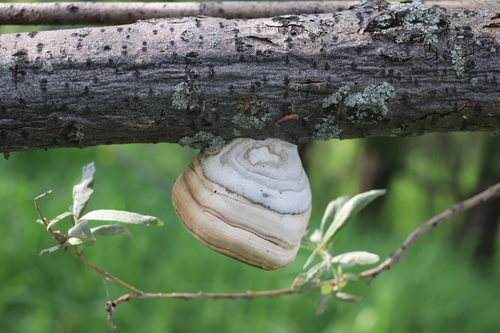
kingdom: Fungi
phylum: Basidiomycota
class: Agaricomycetes
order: Polyporales
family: Polyporaceae
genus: Fomes
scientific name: Fomes fomentarius
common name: Hoof fungus
